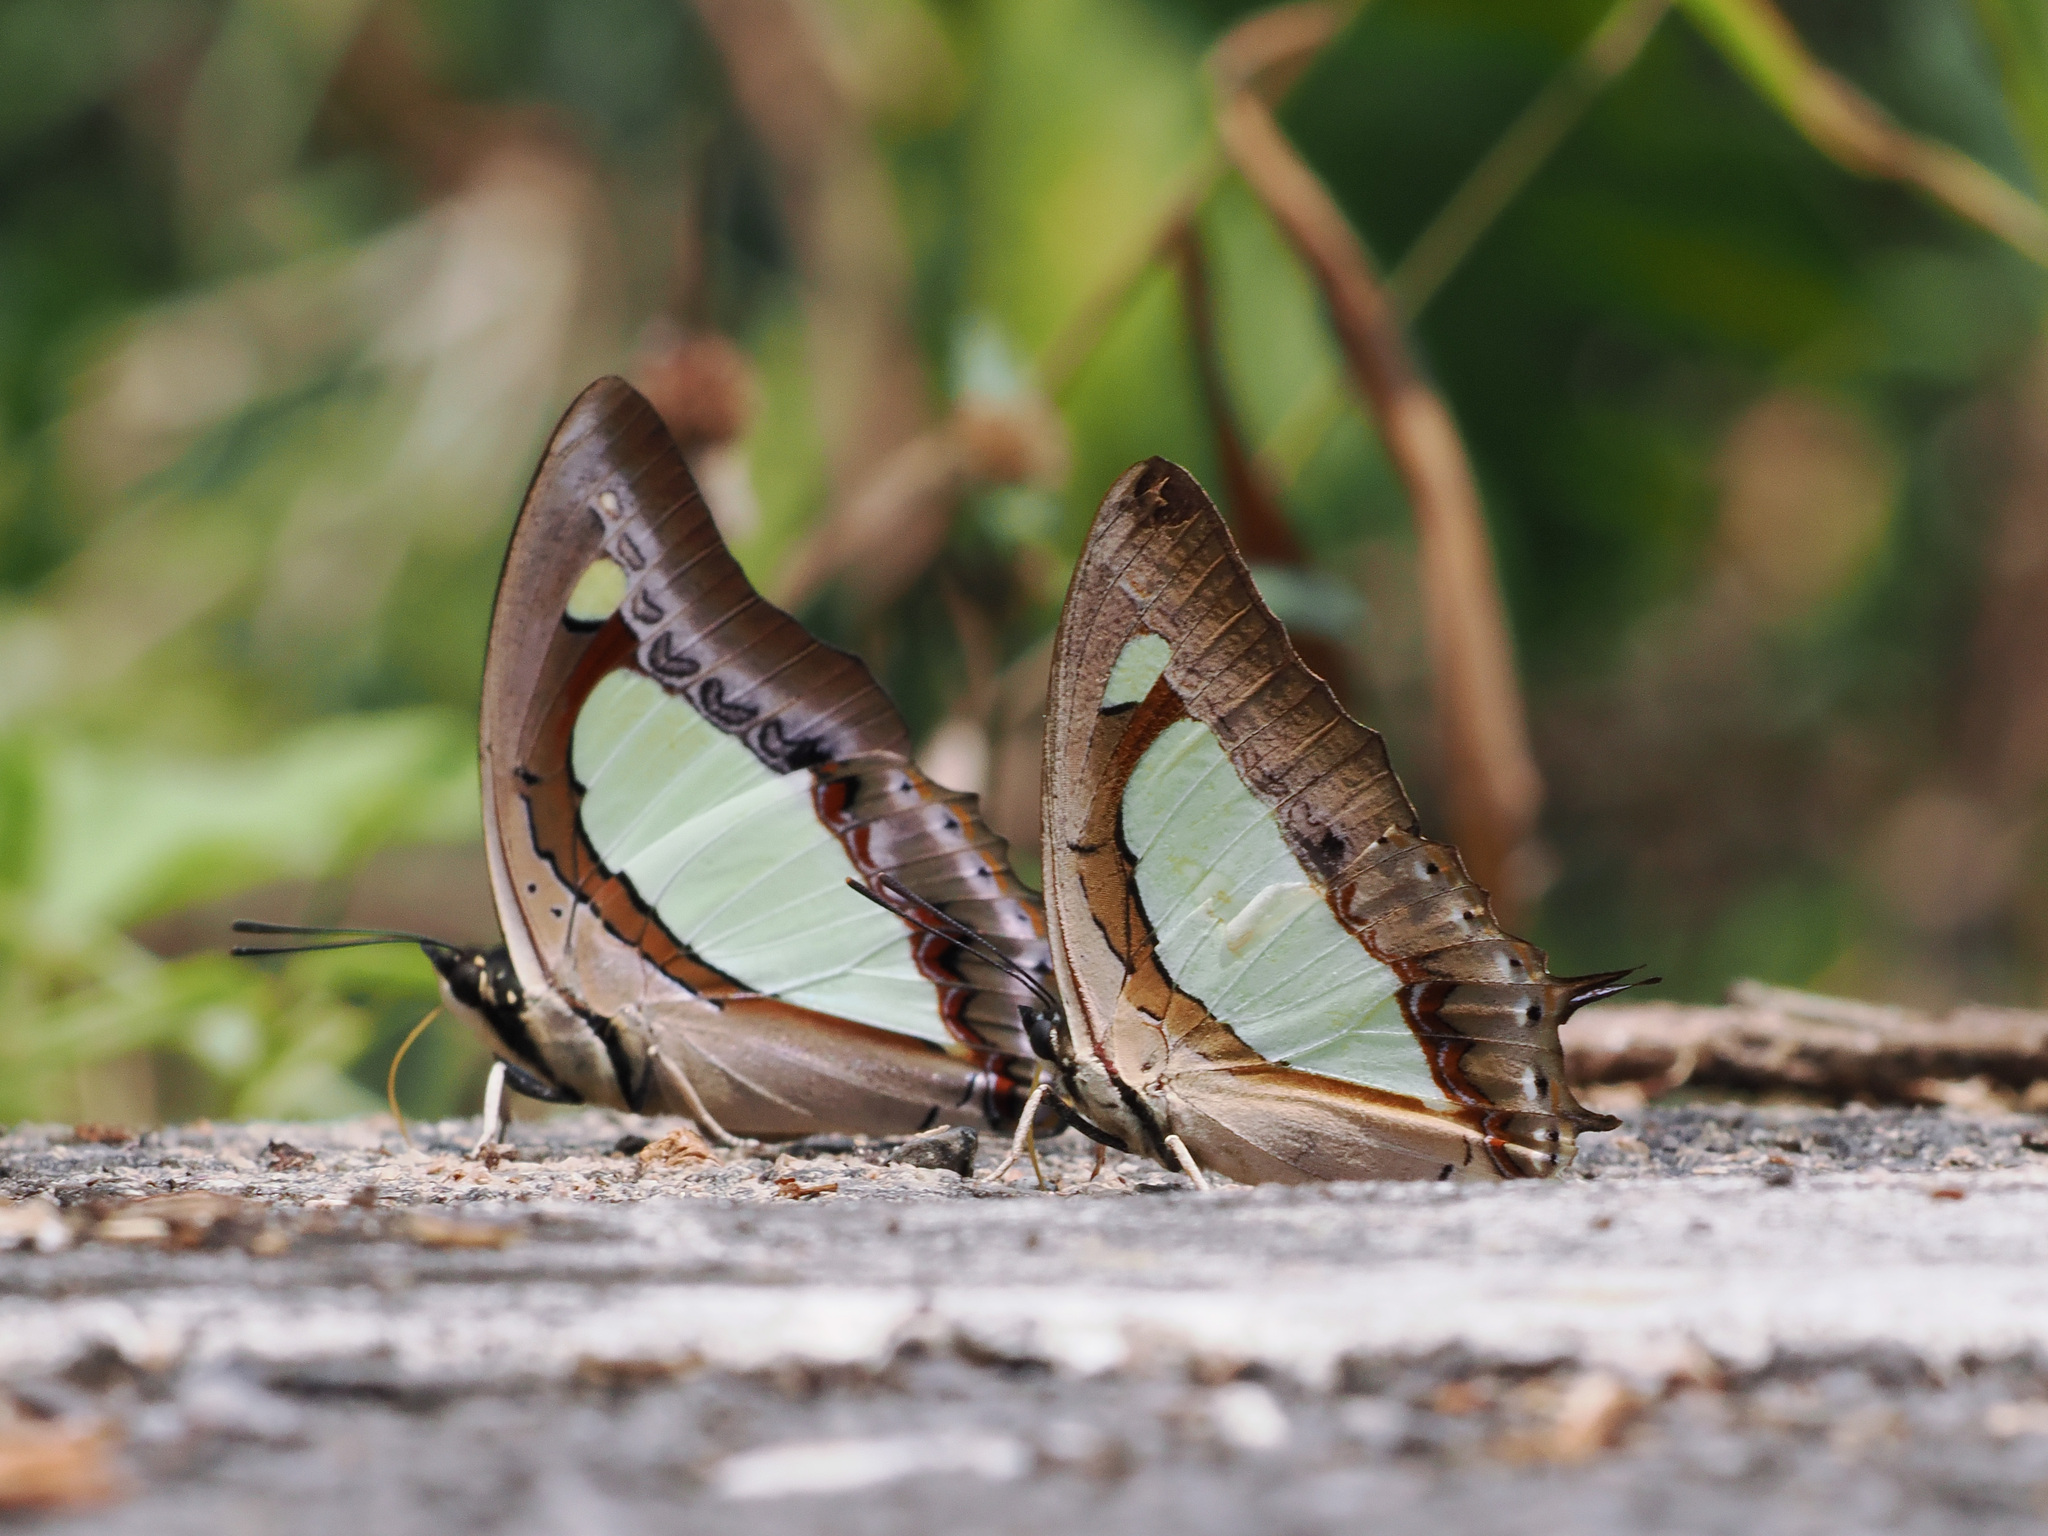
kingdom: Animalia
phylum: Arthropoda
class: Insecta
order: Lepidoptera
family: Nymphalidae
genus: Polyura
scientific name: Polyura arja
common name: Pallid nawab
